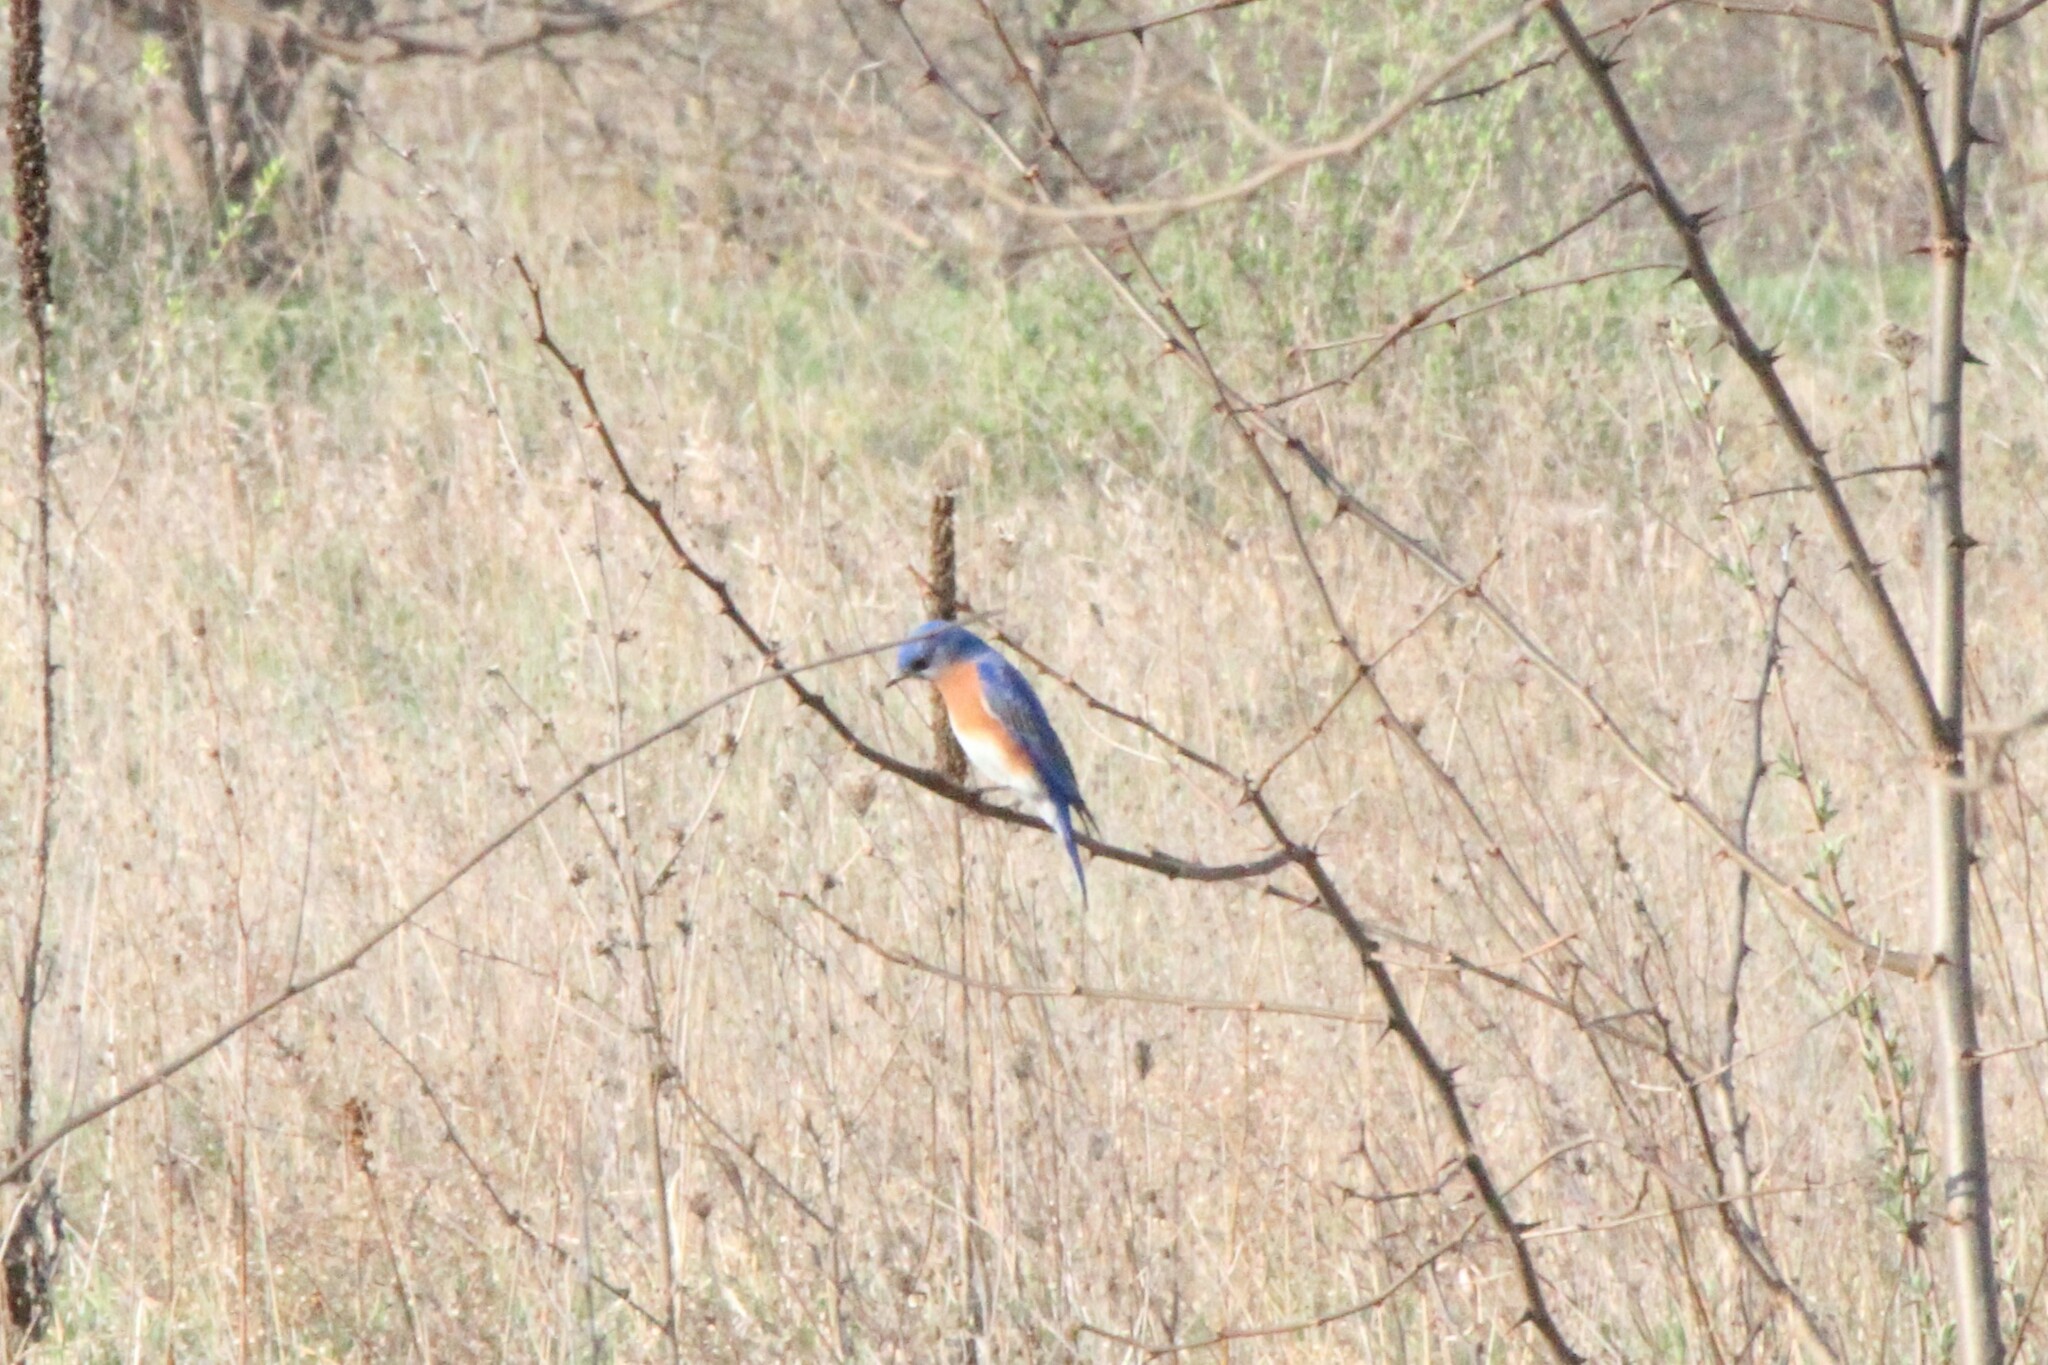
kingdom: Animalia
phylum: Chordata
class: Aves
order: Passeriformes
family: Turdidae
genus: Sialia
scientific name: Sialia sialis
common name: Eastern bluebird
